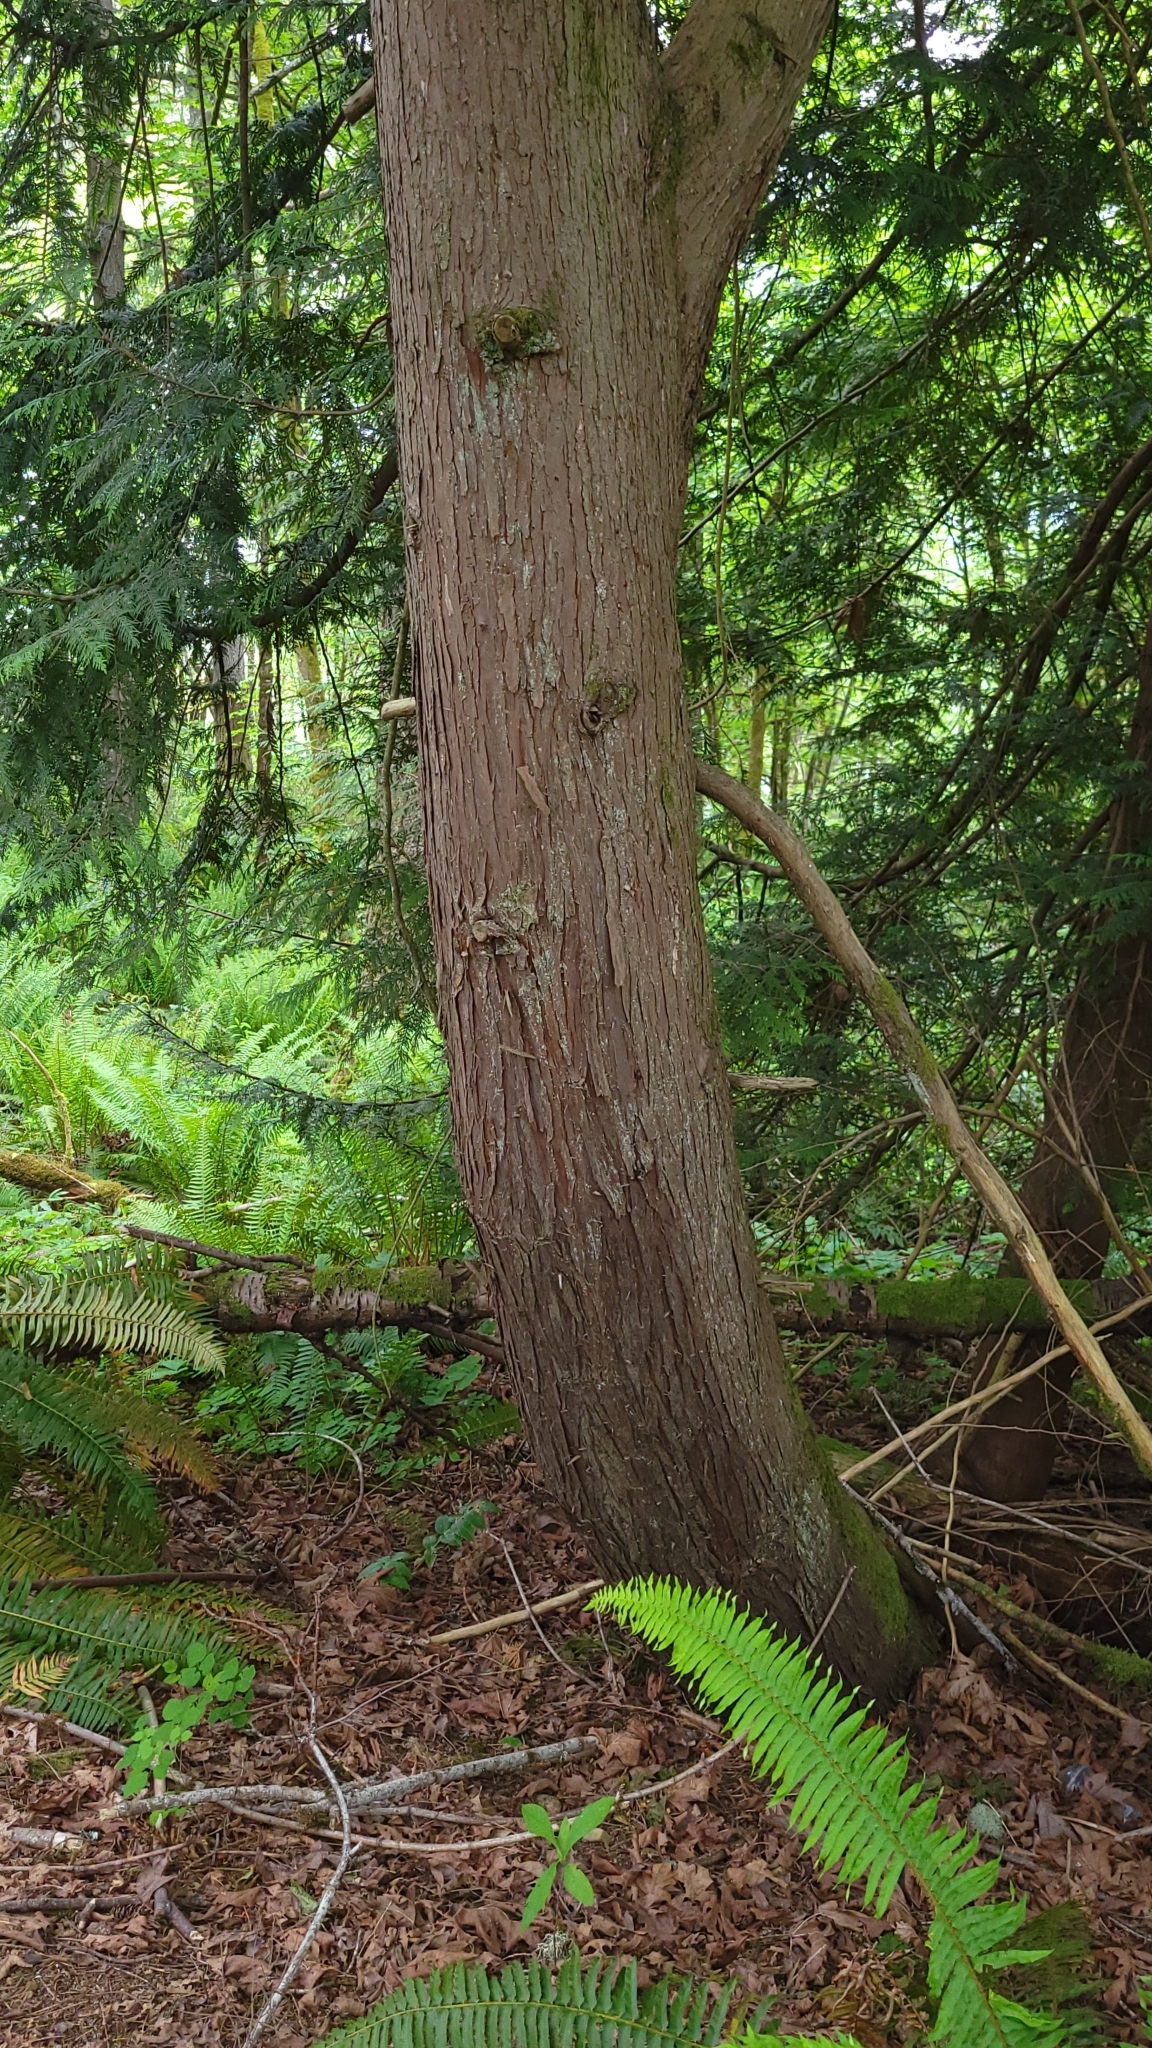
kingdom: Plantae
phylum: Tracheophyta
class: Pinopsida
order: Pinales
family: Cupressaceae
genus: Thuja
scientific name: Thuja plicata
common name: Western red-cedar
